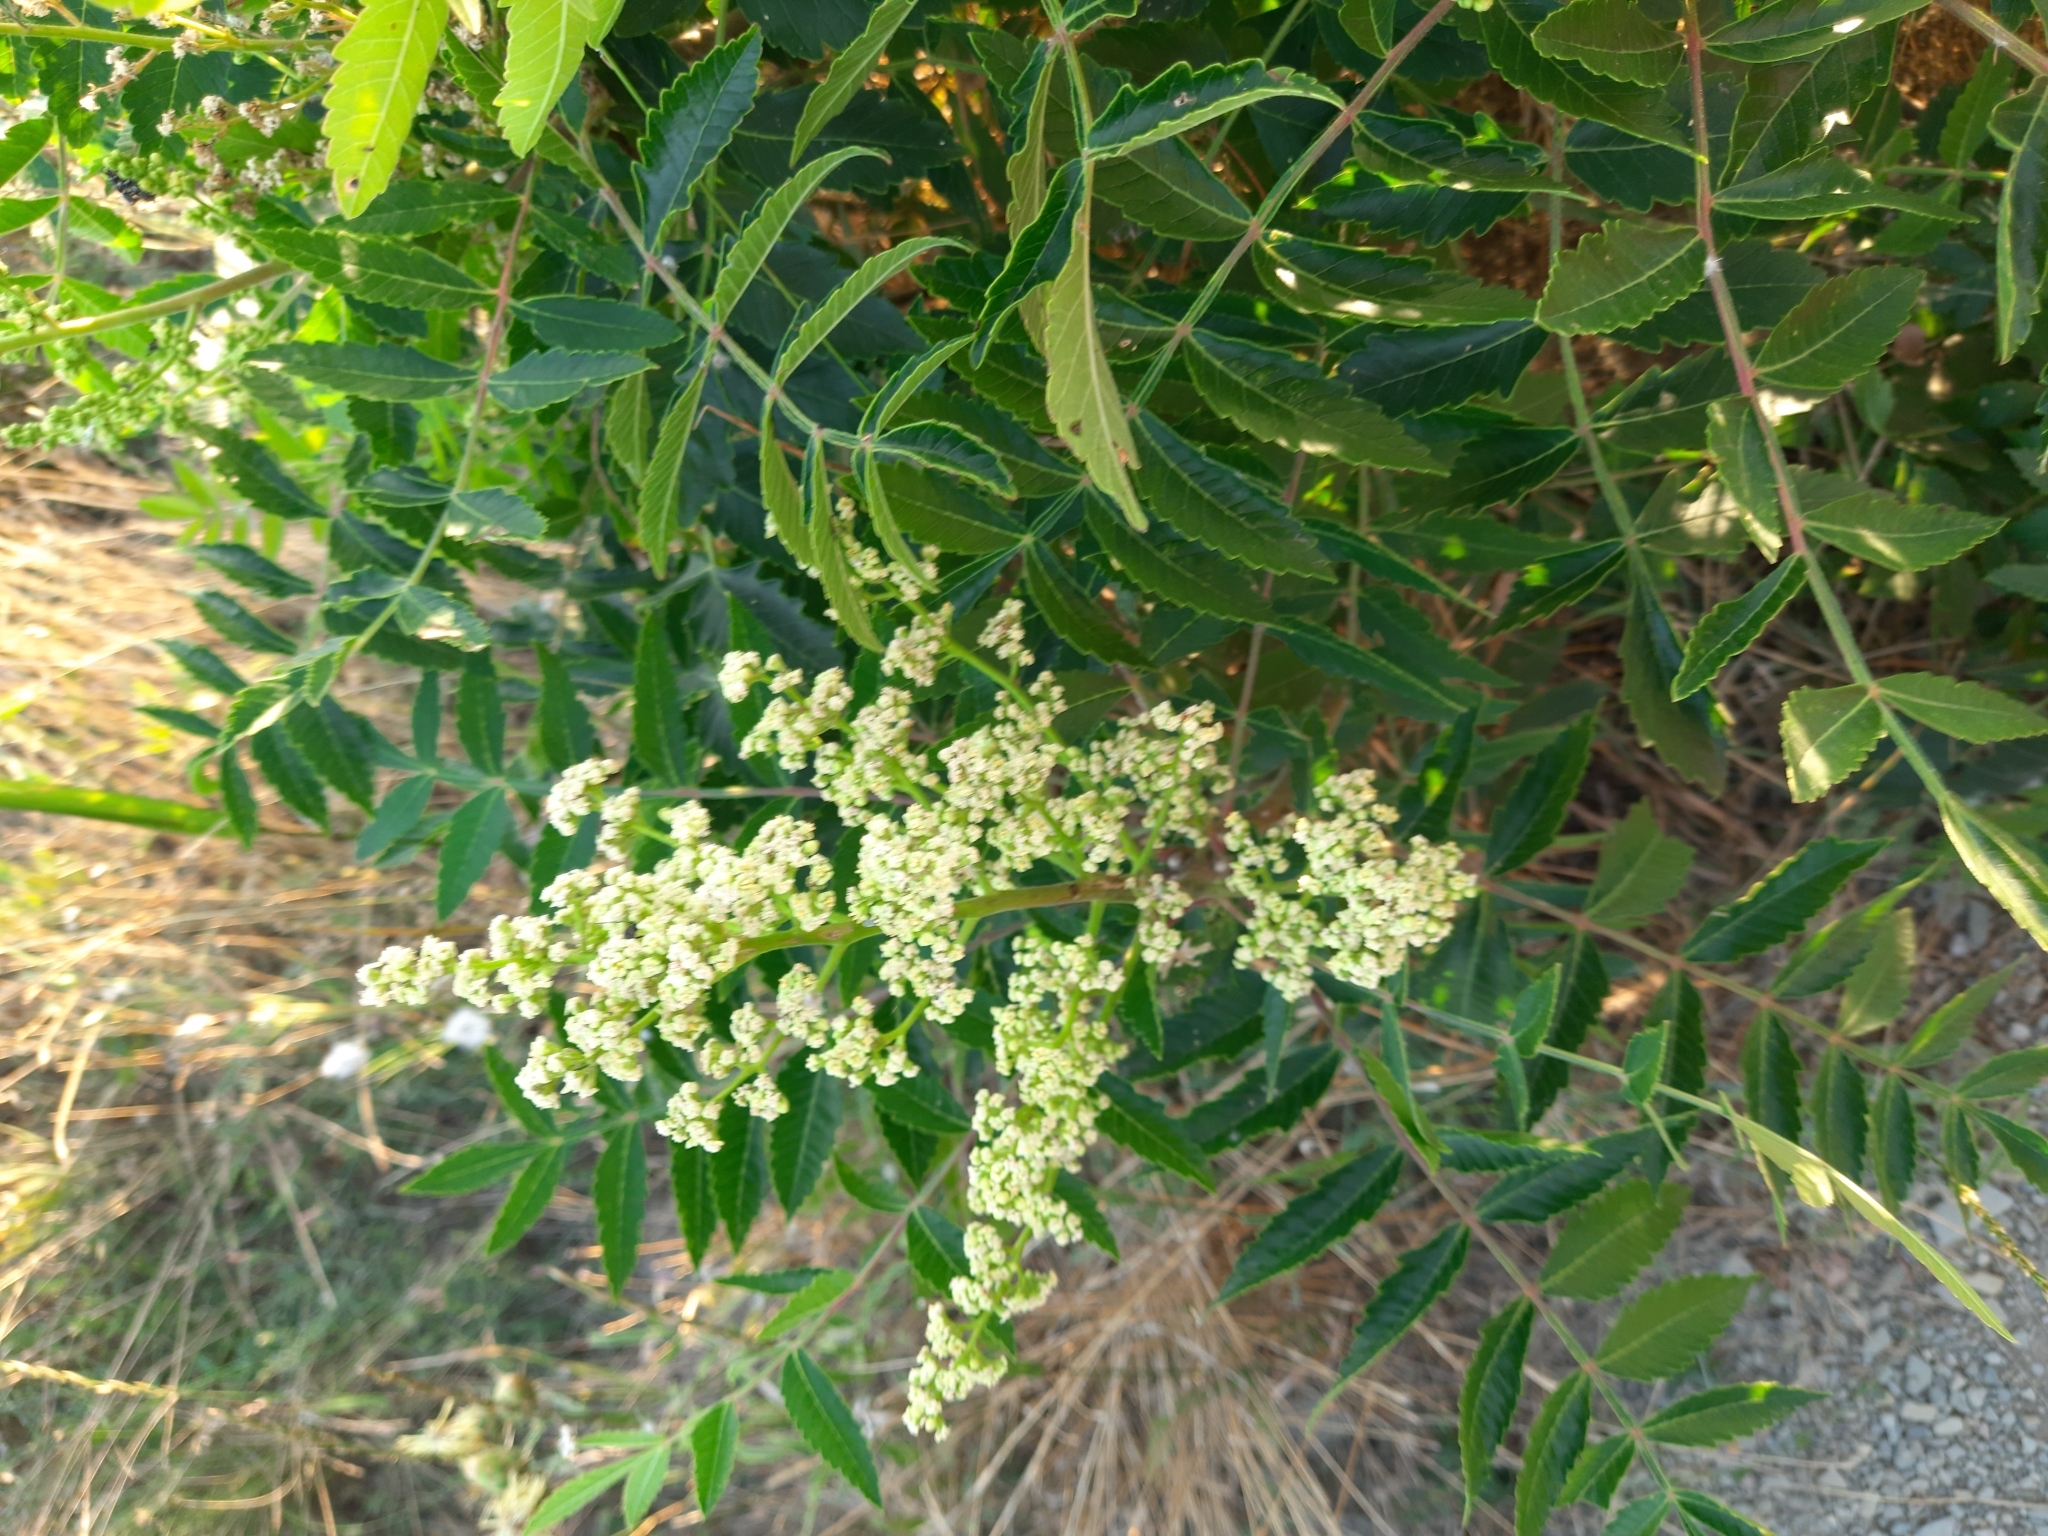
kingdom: Plantae
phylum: Tracheophyta
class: Magnoliopsida
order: Sapindales
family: Anacardiaceae
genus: Rhus
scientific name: Rhus coriaria
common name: Tanner's sumach
